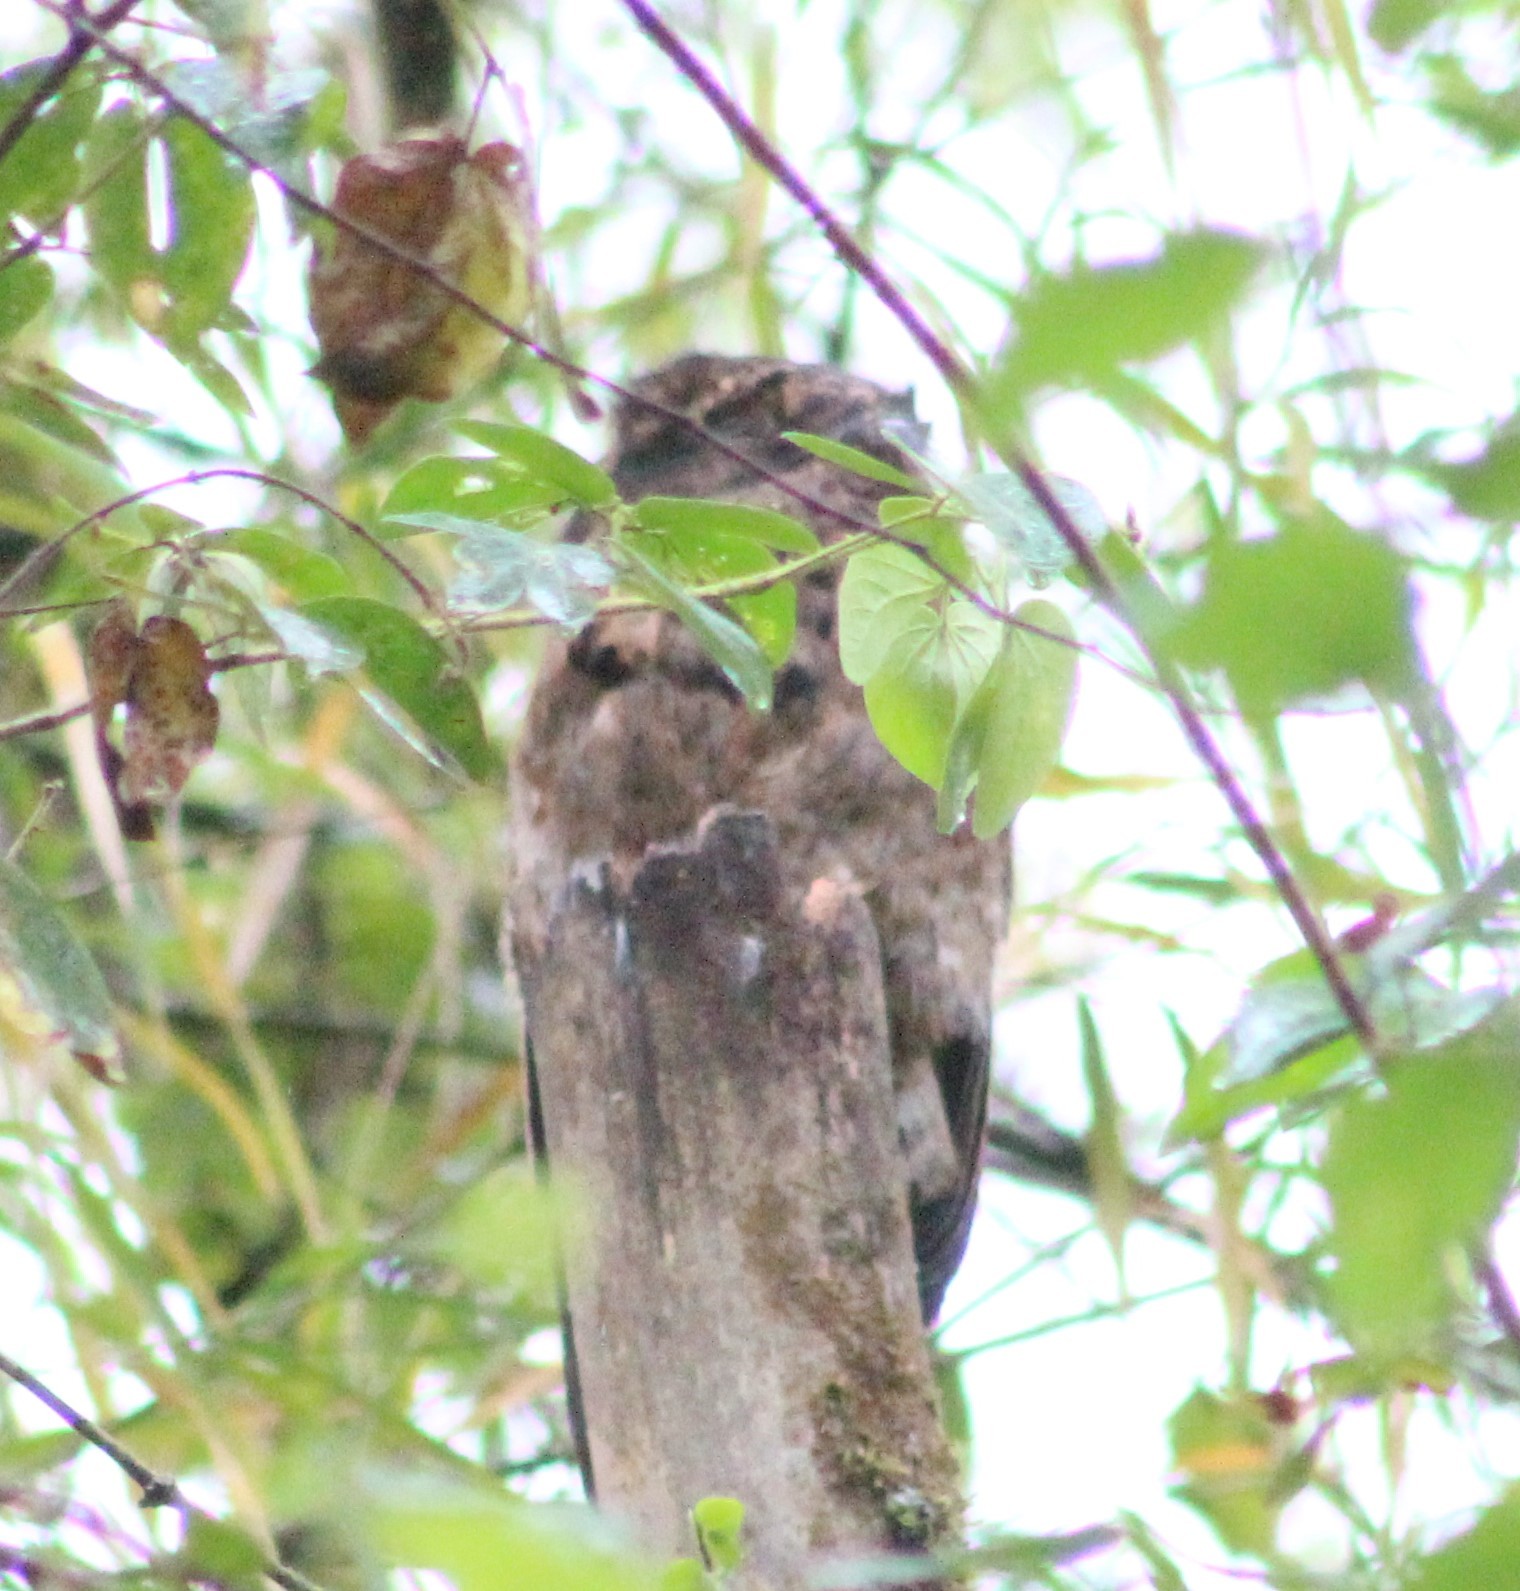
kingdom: Animalia
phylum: Chordata
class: Aves
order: Nyctibiiformes
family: Nyctibiidae
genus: Nyctibius
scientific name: Nyctibius griseus
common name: Common potoo
